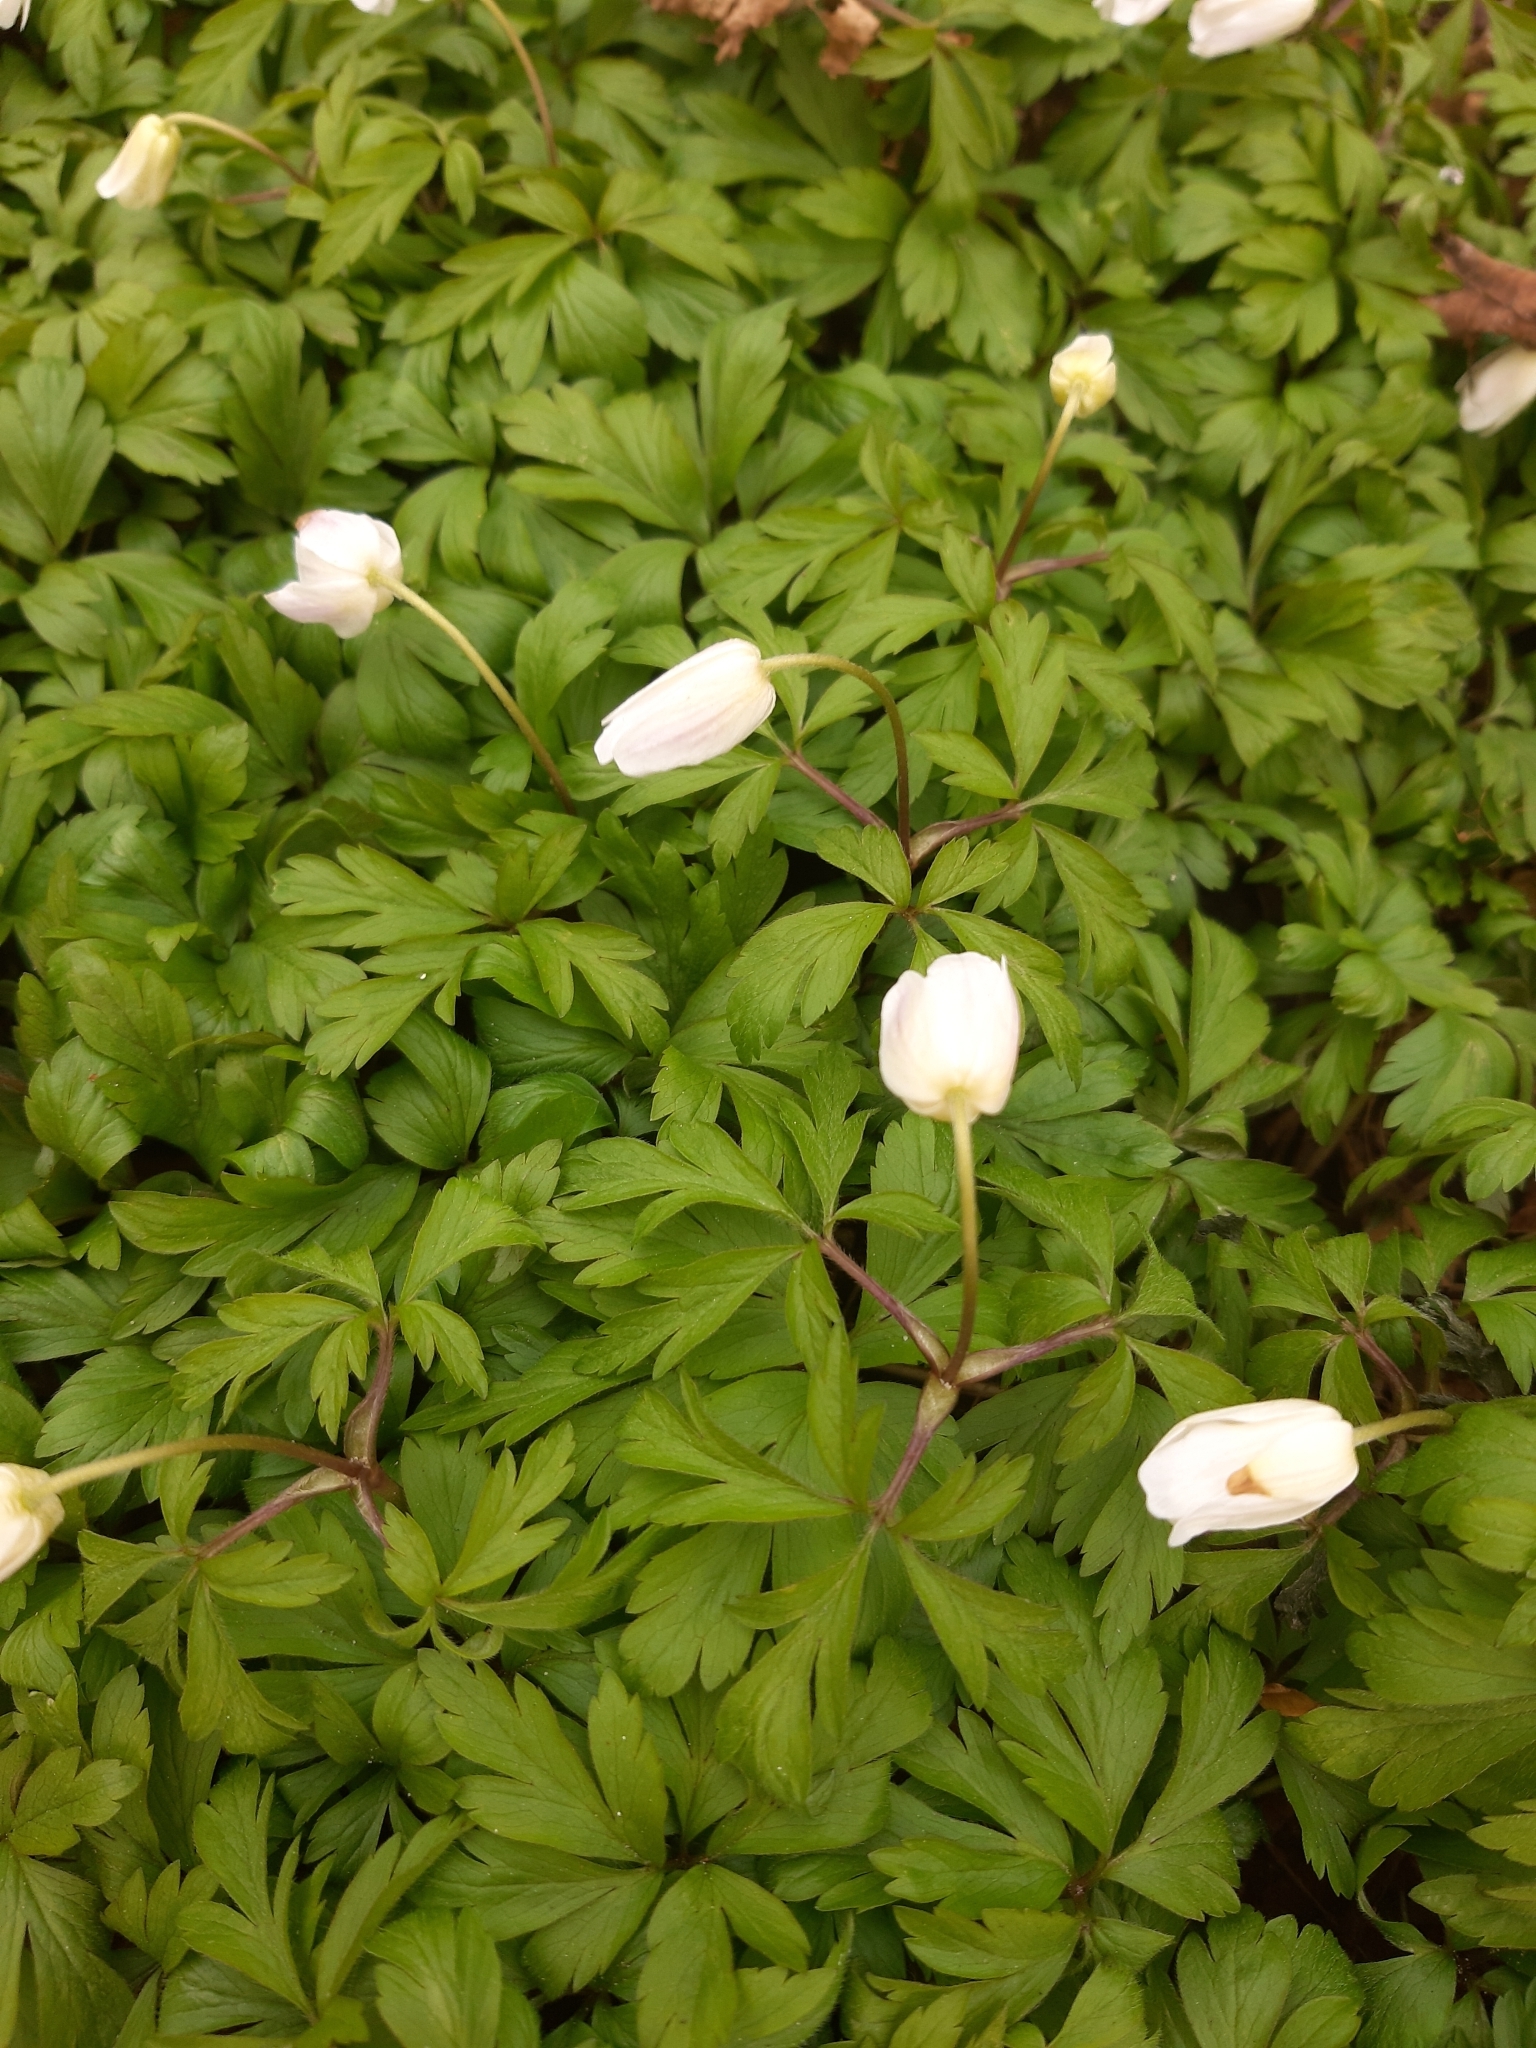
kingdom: Plantae
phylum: Tracheophyta
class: Magnoliopsida
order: Ranunculales
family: Ranunculaceae
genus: Anemone
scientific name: Anemone nemorosa
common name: Wood anemone
